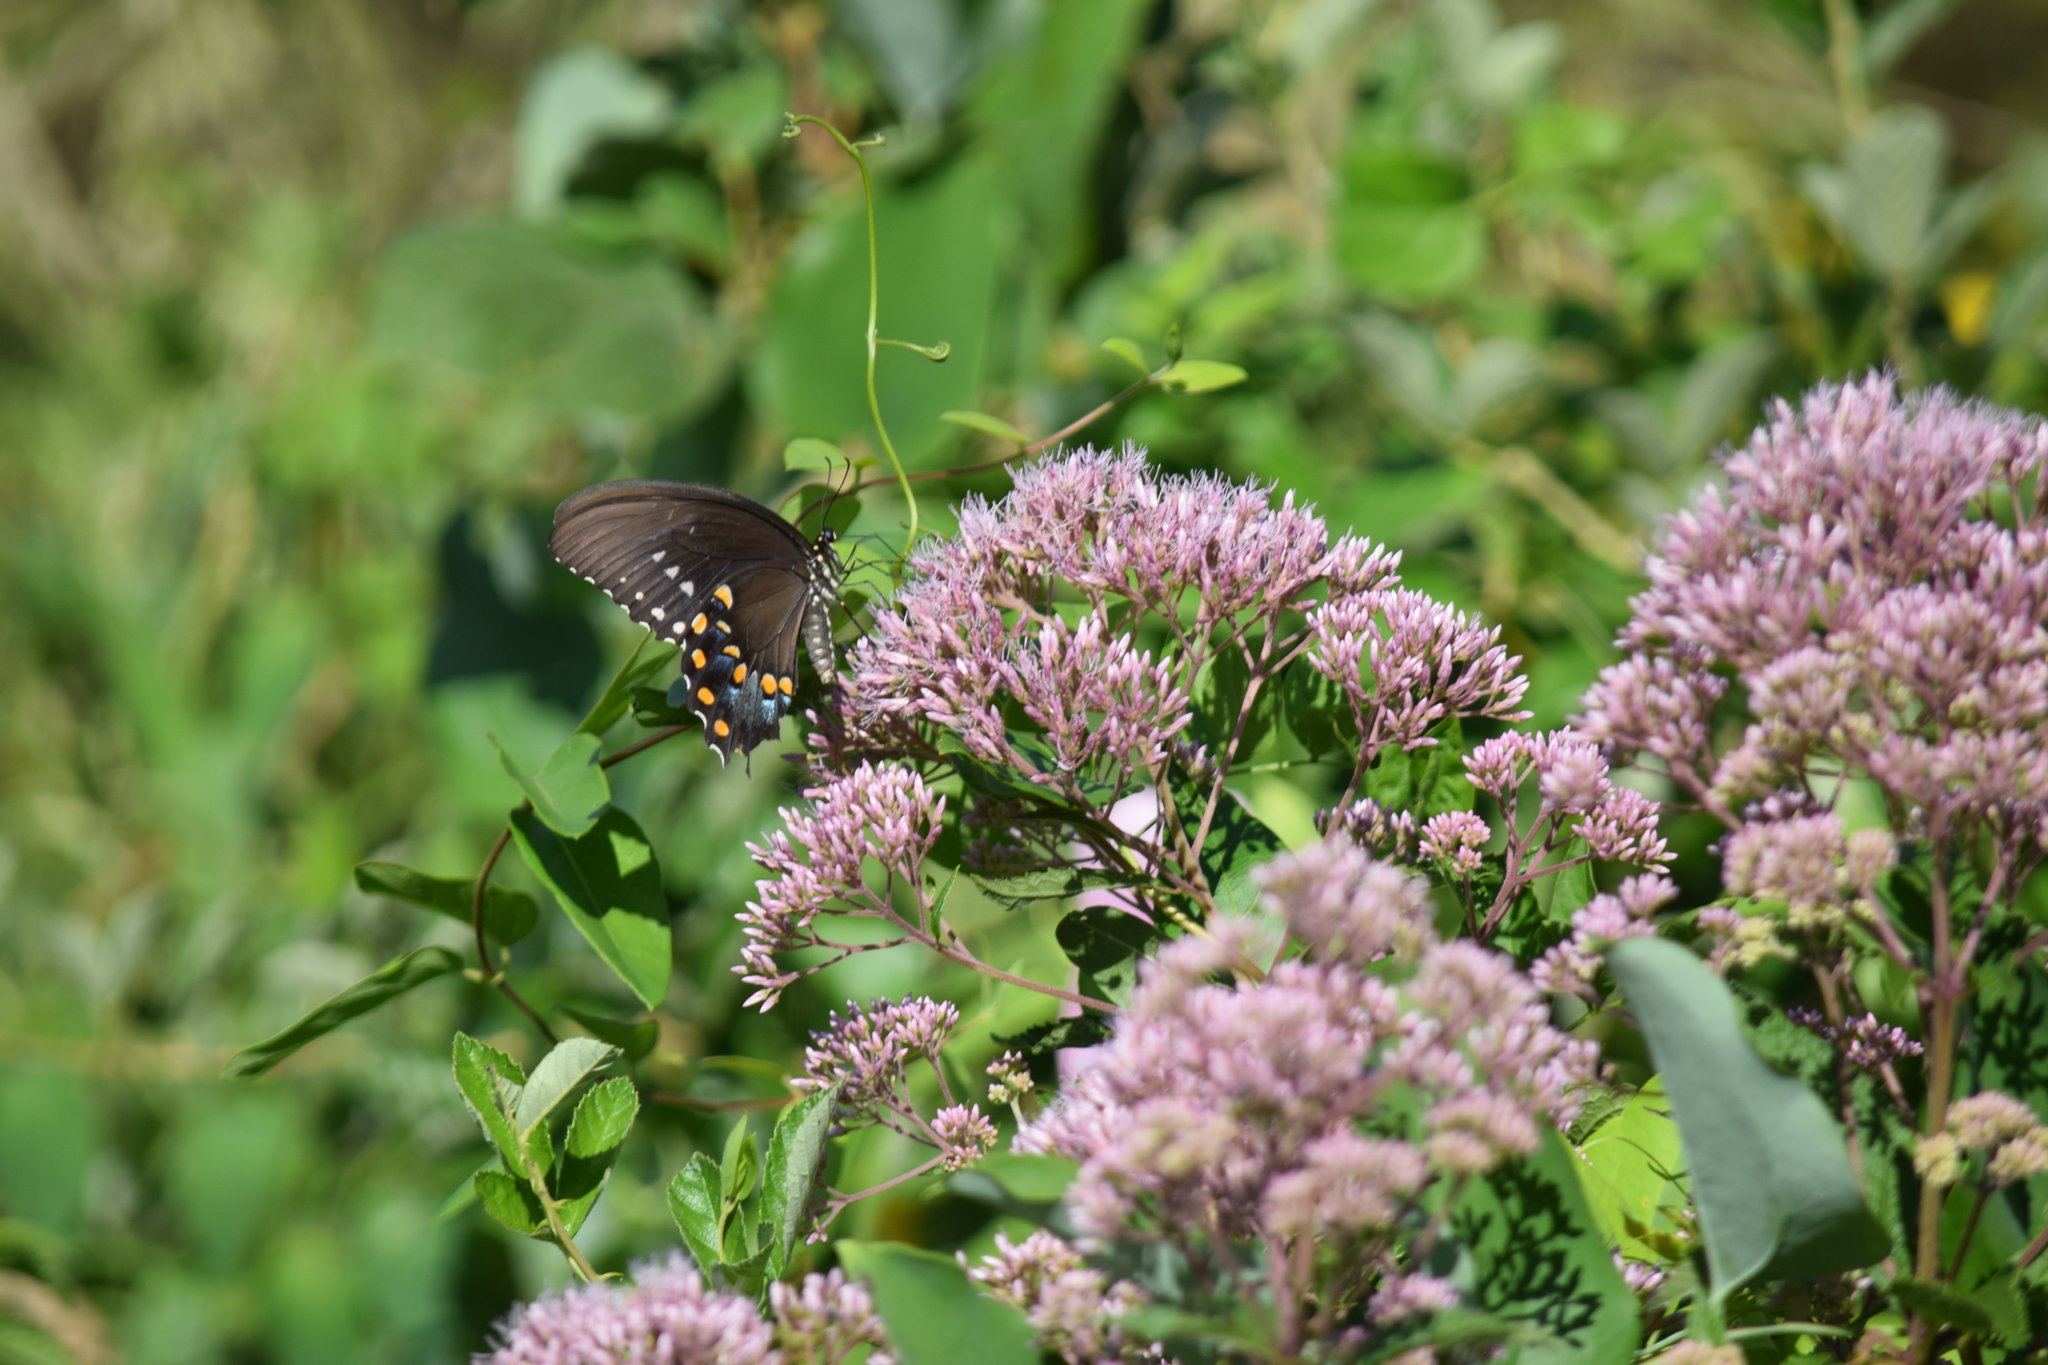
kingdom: Animalia
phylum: Arthropoda
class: Insecta
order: Lepidoptera
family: Papilionidae
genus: Papilio
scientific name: Papilio troilus
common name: Spicebush swallowtail
